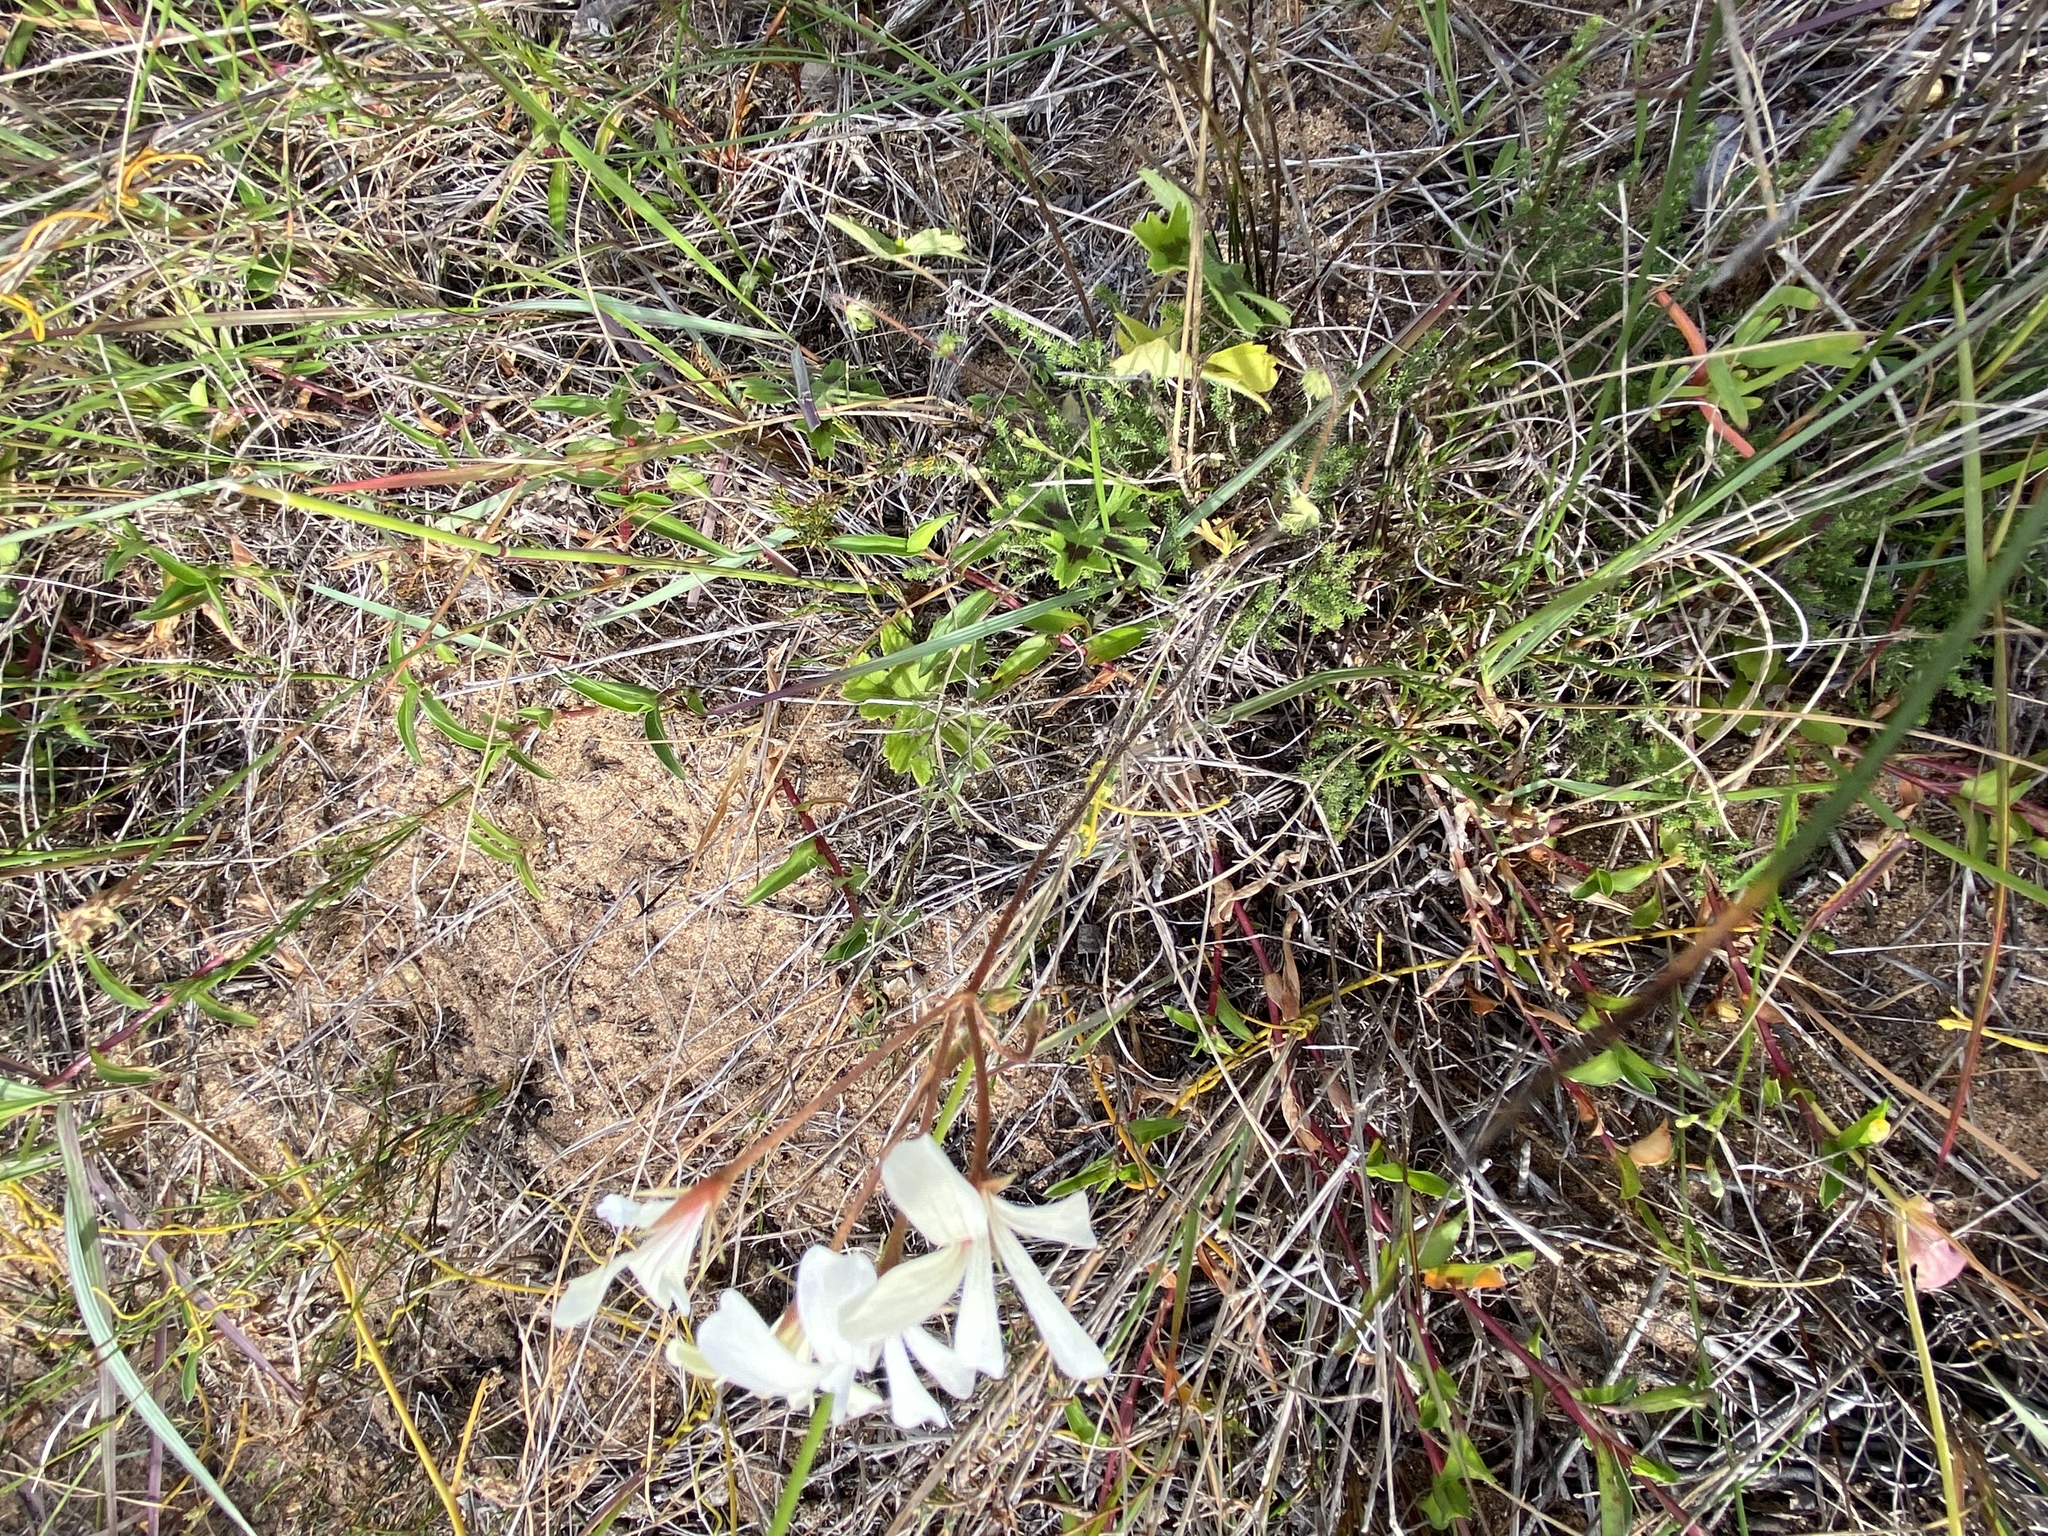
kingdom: Plantae
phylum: Tracheophyta
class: Magnoliopsida
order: Geraniales
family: Geraniaceae
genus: Pelargonium
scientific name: Pelargonium alchemilloides
